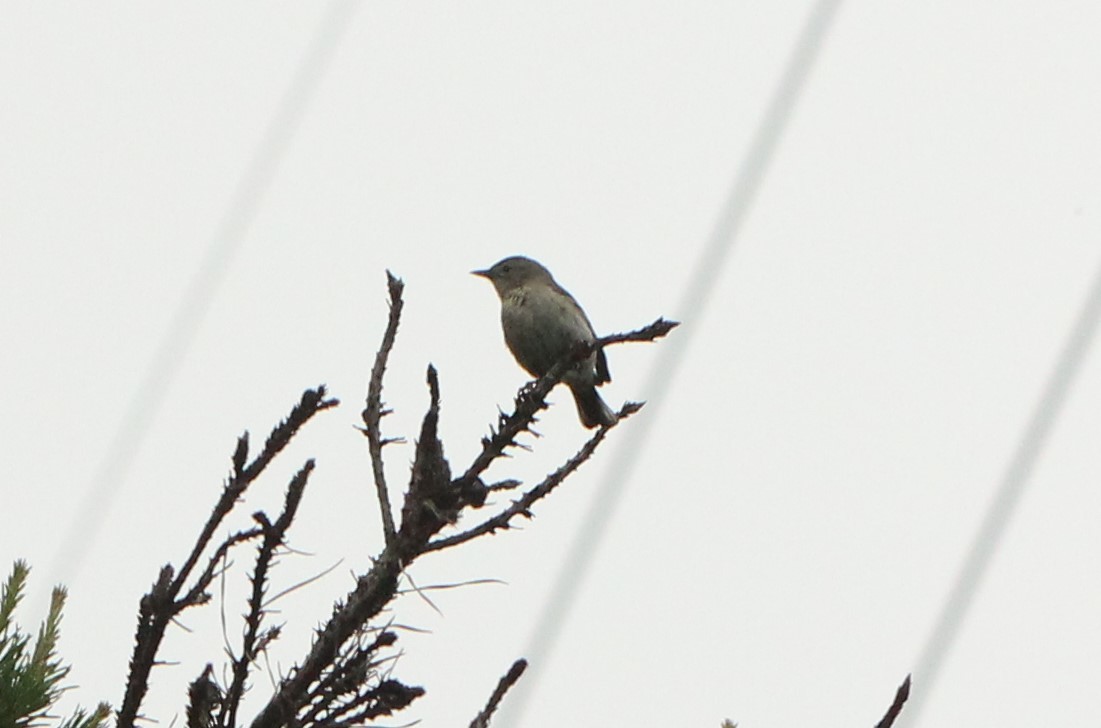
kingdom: Animalia
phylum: Chordata
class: Aves
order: Passeriformes
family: Parulidae
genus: Setophaga
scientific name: Setophaga pinus
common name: Pine warbler
